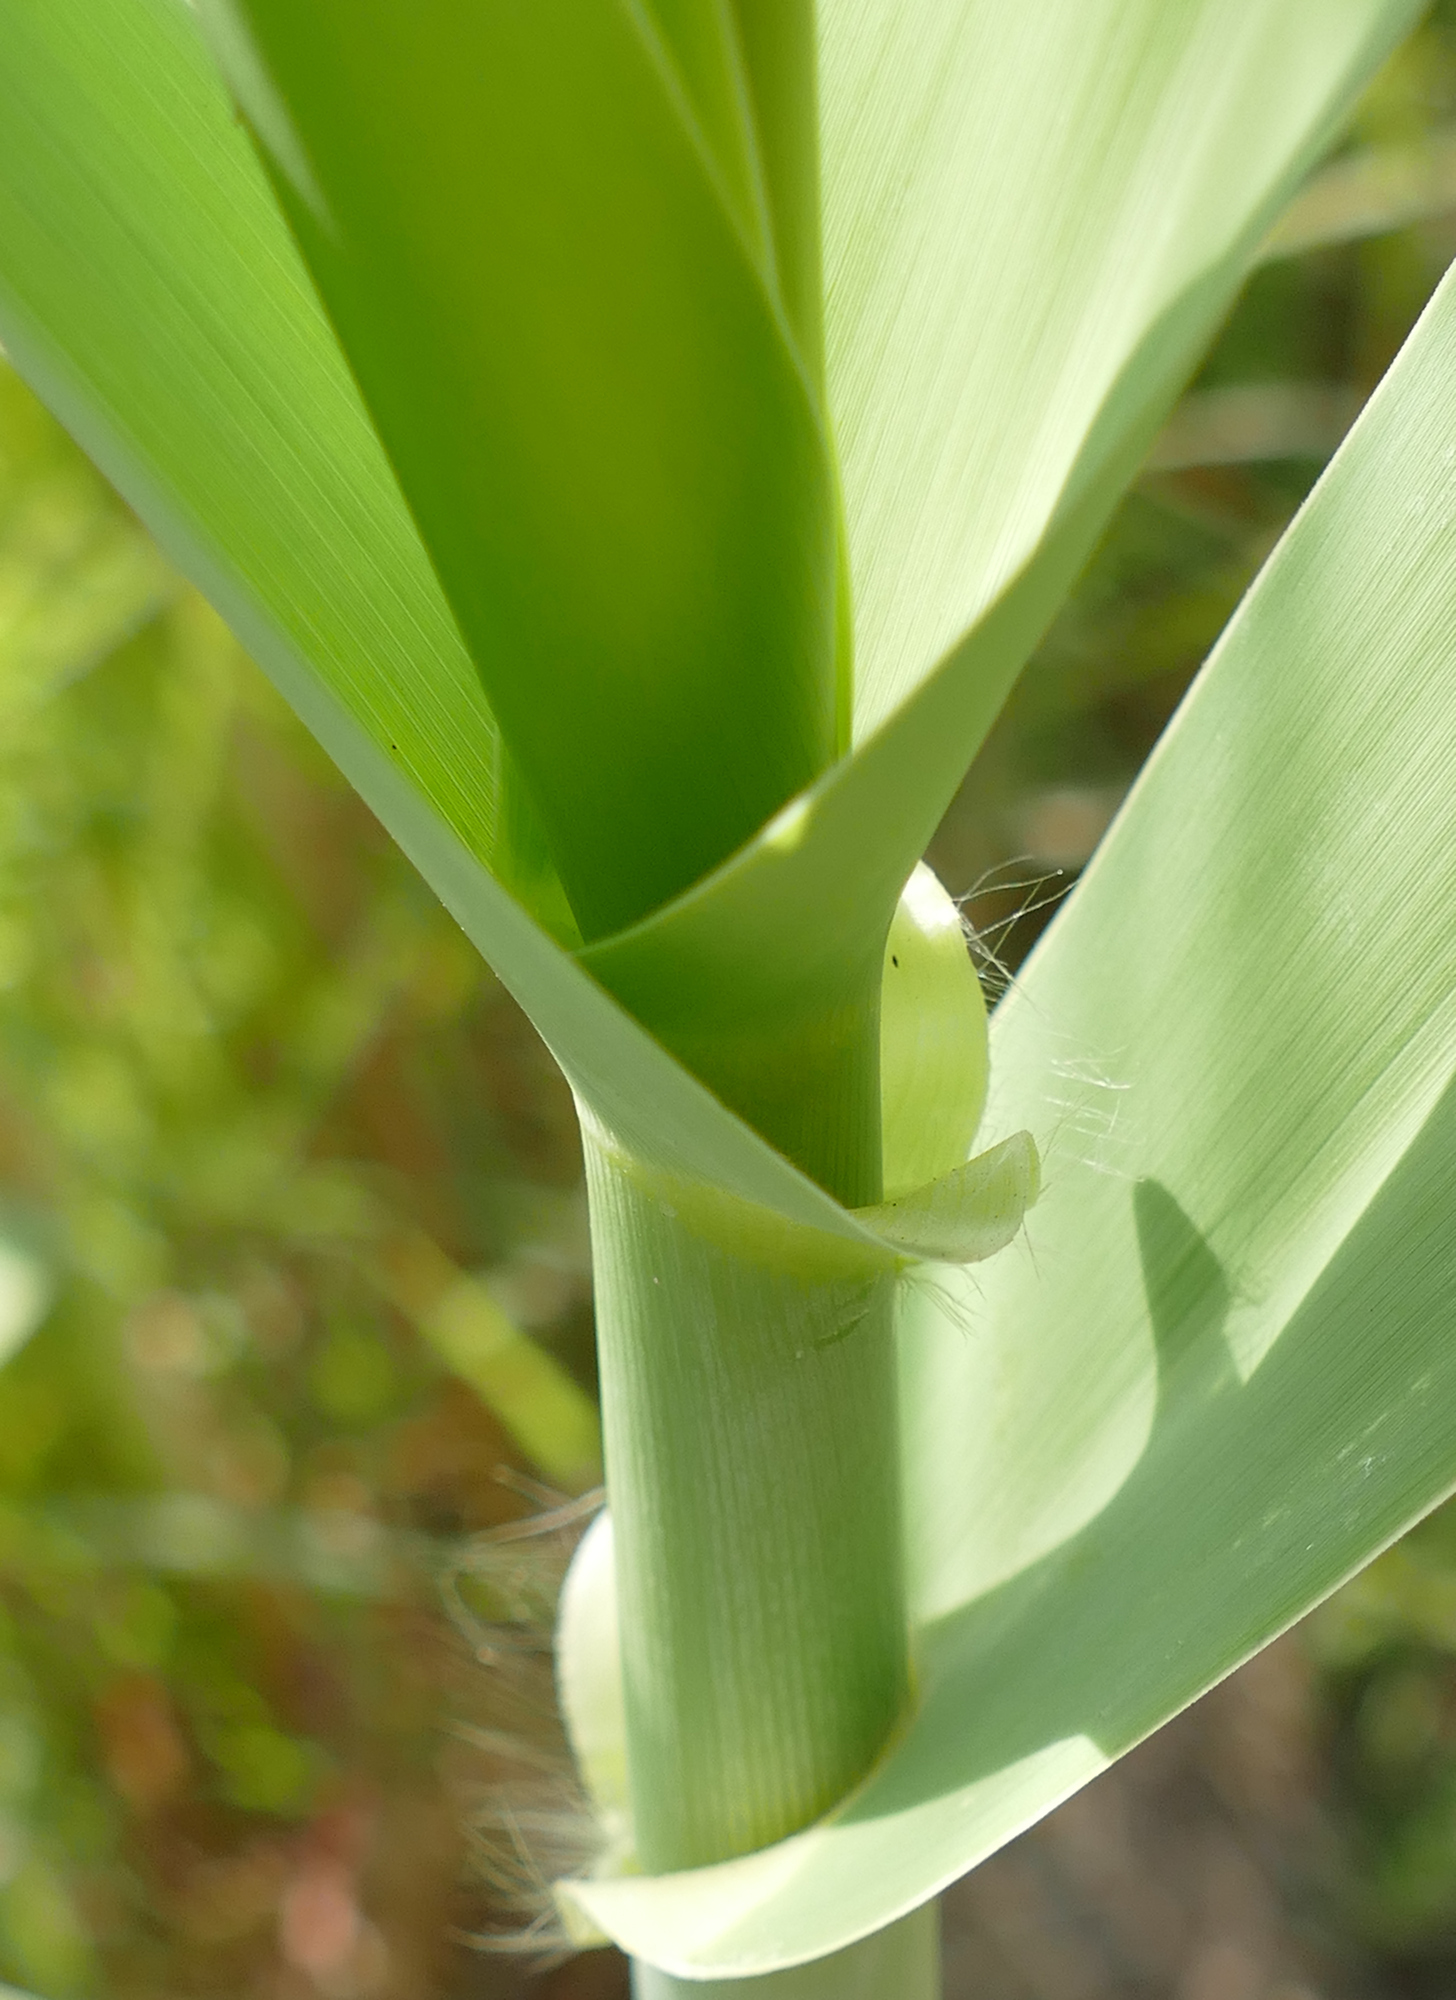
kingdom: Plantae
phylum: Tracheophyta
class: Liliopsida
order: Poales
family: Poaceae
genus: Arundo
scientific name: Arundo donax
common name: Giant reed
